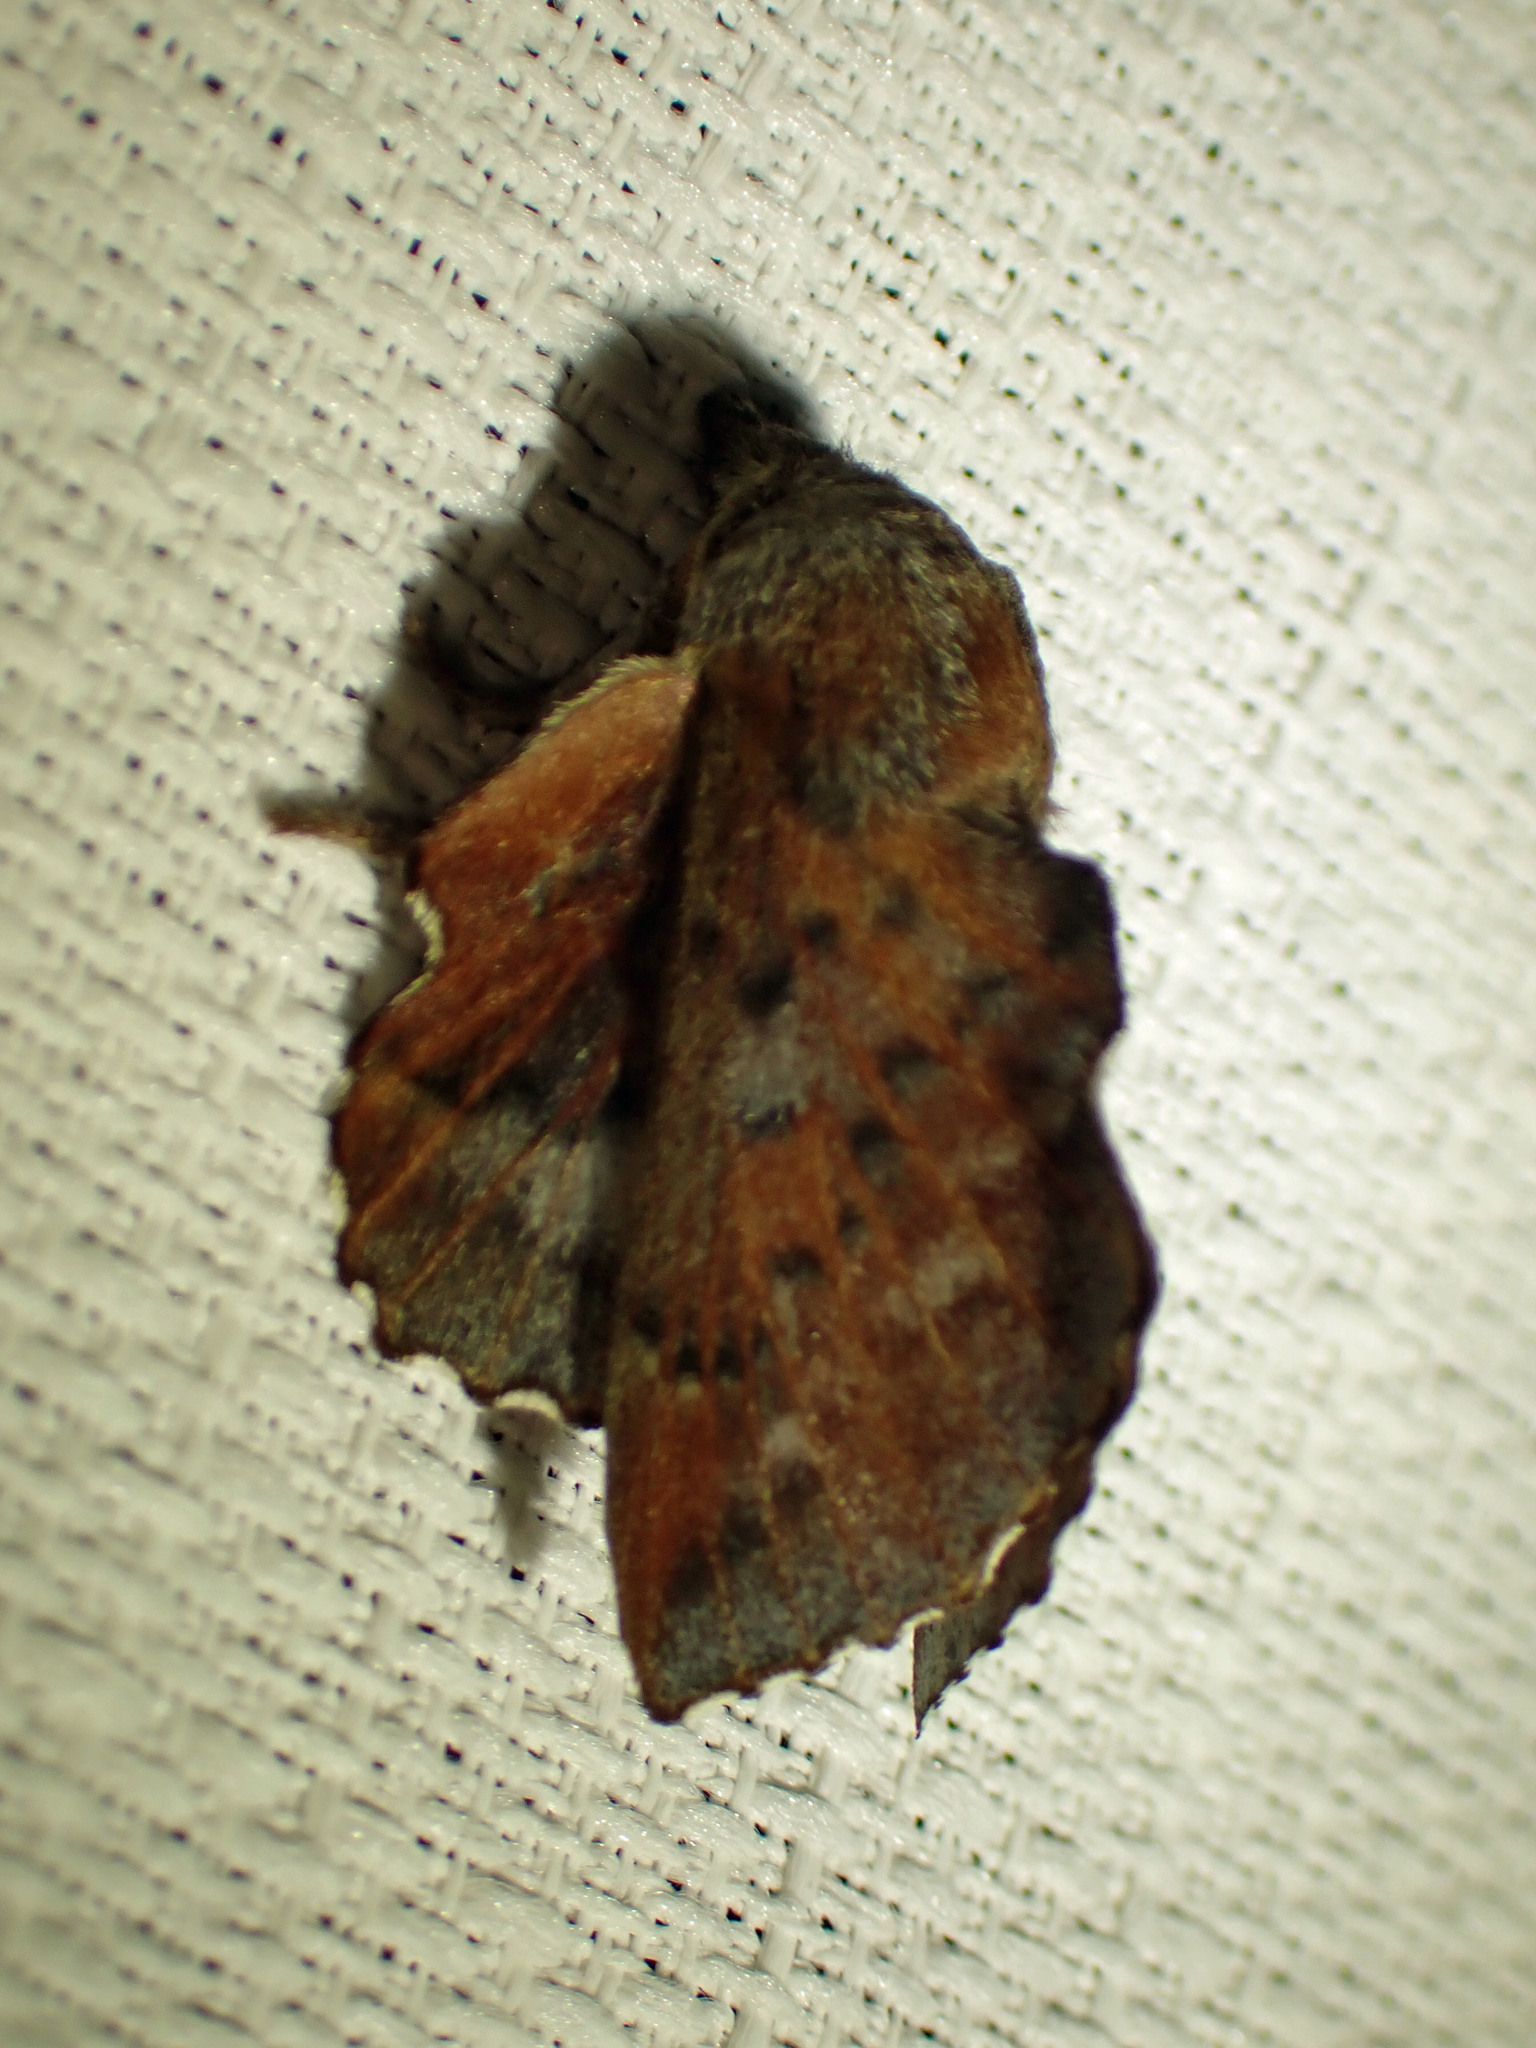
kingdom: Animalia
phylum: Arthropoda
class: Insecta
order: Lepidoptera
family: Lasiocampidae
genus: Phyllodesma
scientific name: Phyllodesma americana
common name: American lappet moth
